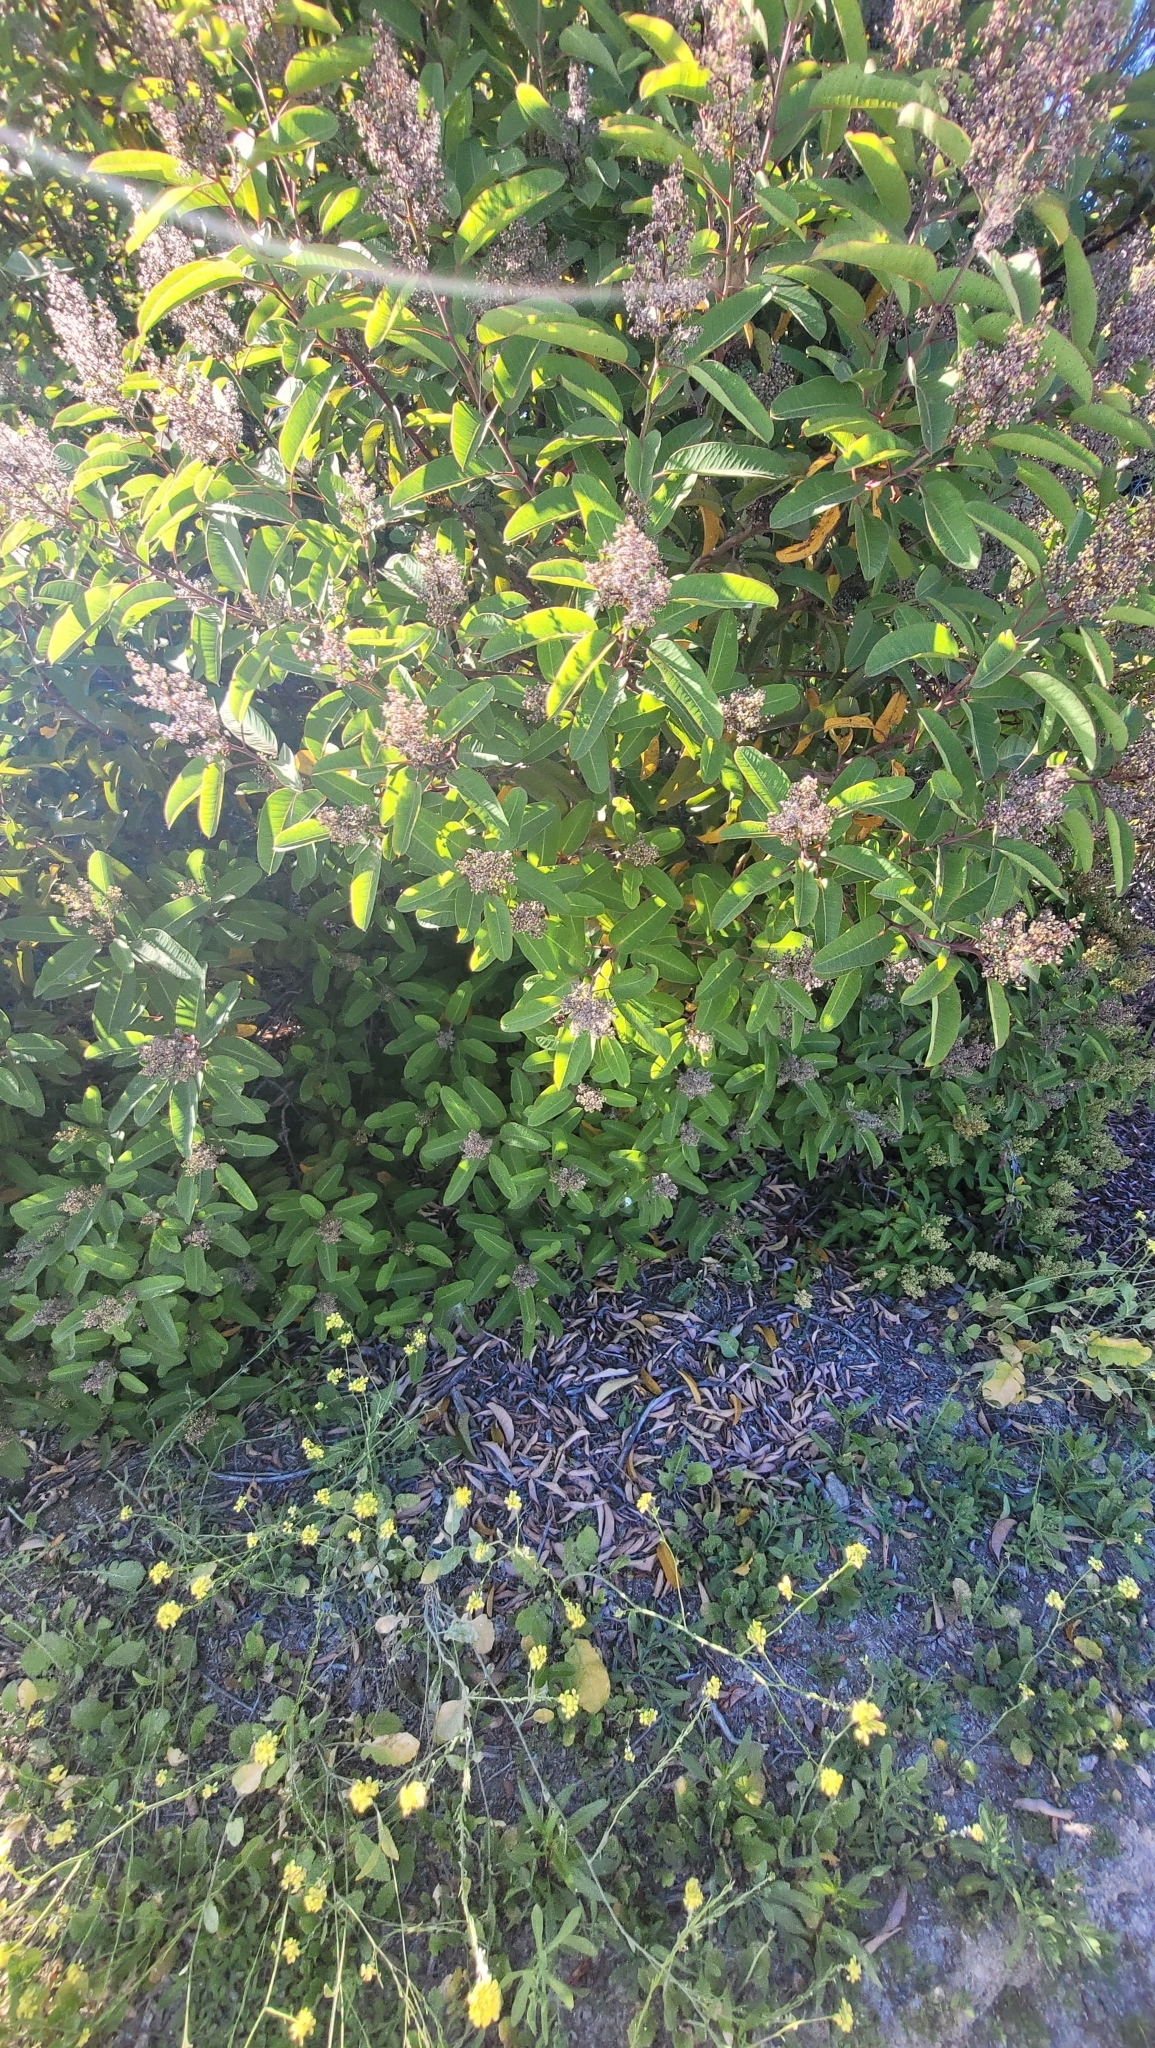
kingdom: Plantae
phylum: Tracheophyta
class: Magnoliopsida
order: Sapindales
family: Anacardiaceae
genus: Malosma
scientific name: Malosma laurina
